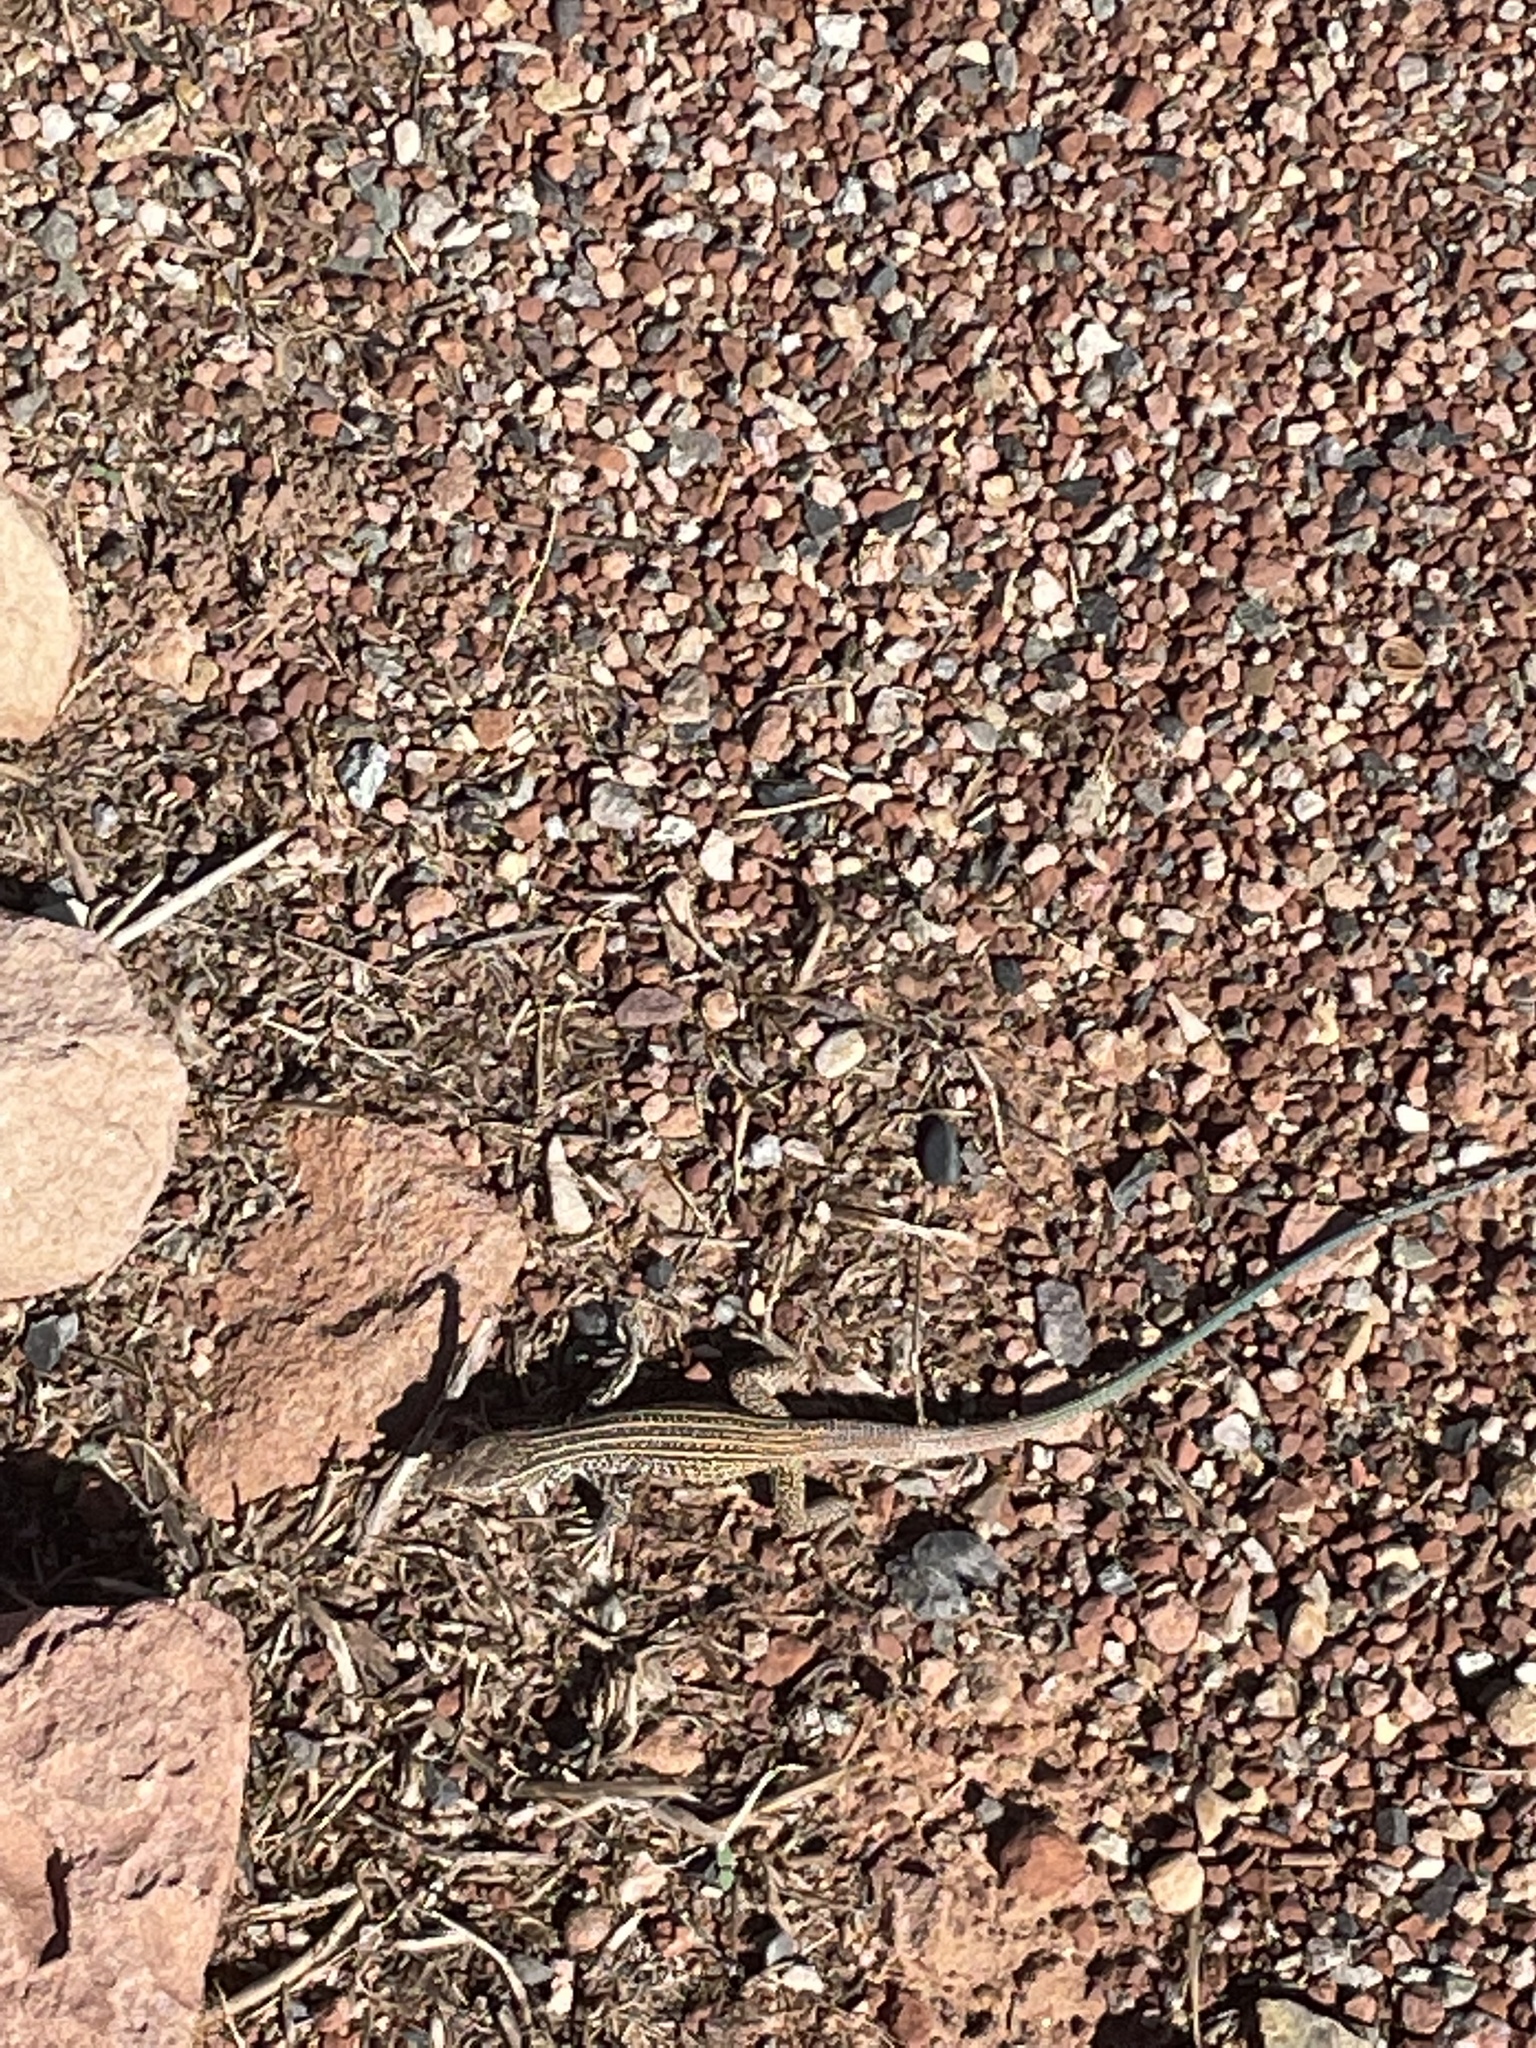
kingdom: Animalia
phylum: Chordata
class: Squamata
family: Teiidae
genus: Aspidoscelis
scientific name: Aspidoscelis tigris
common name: Tiger whiptail
